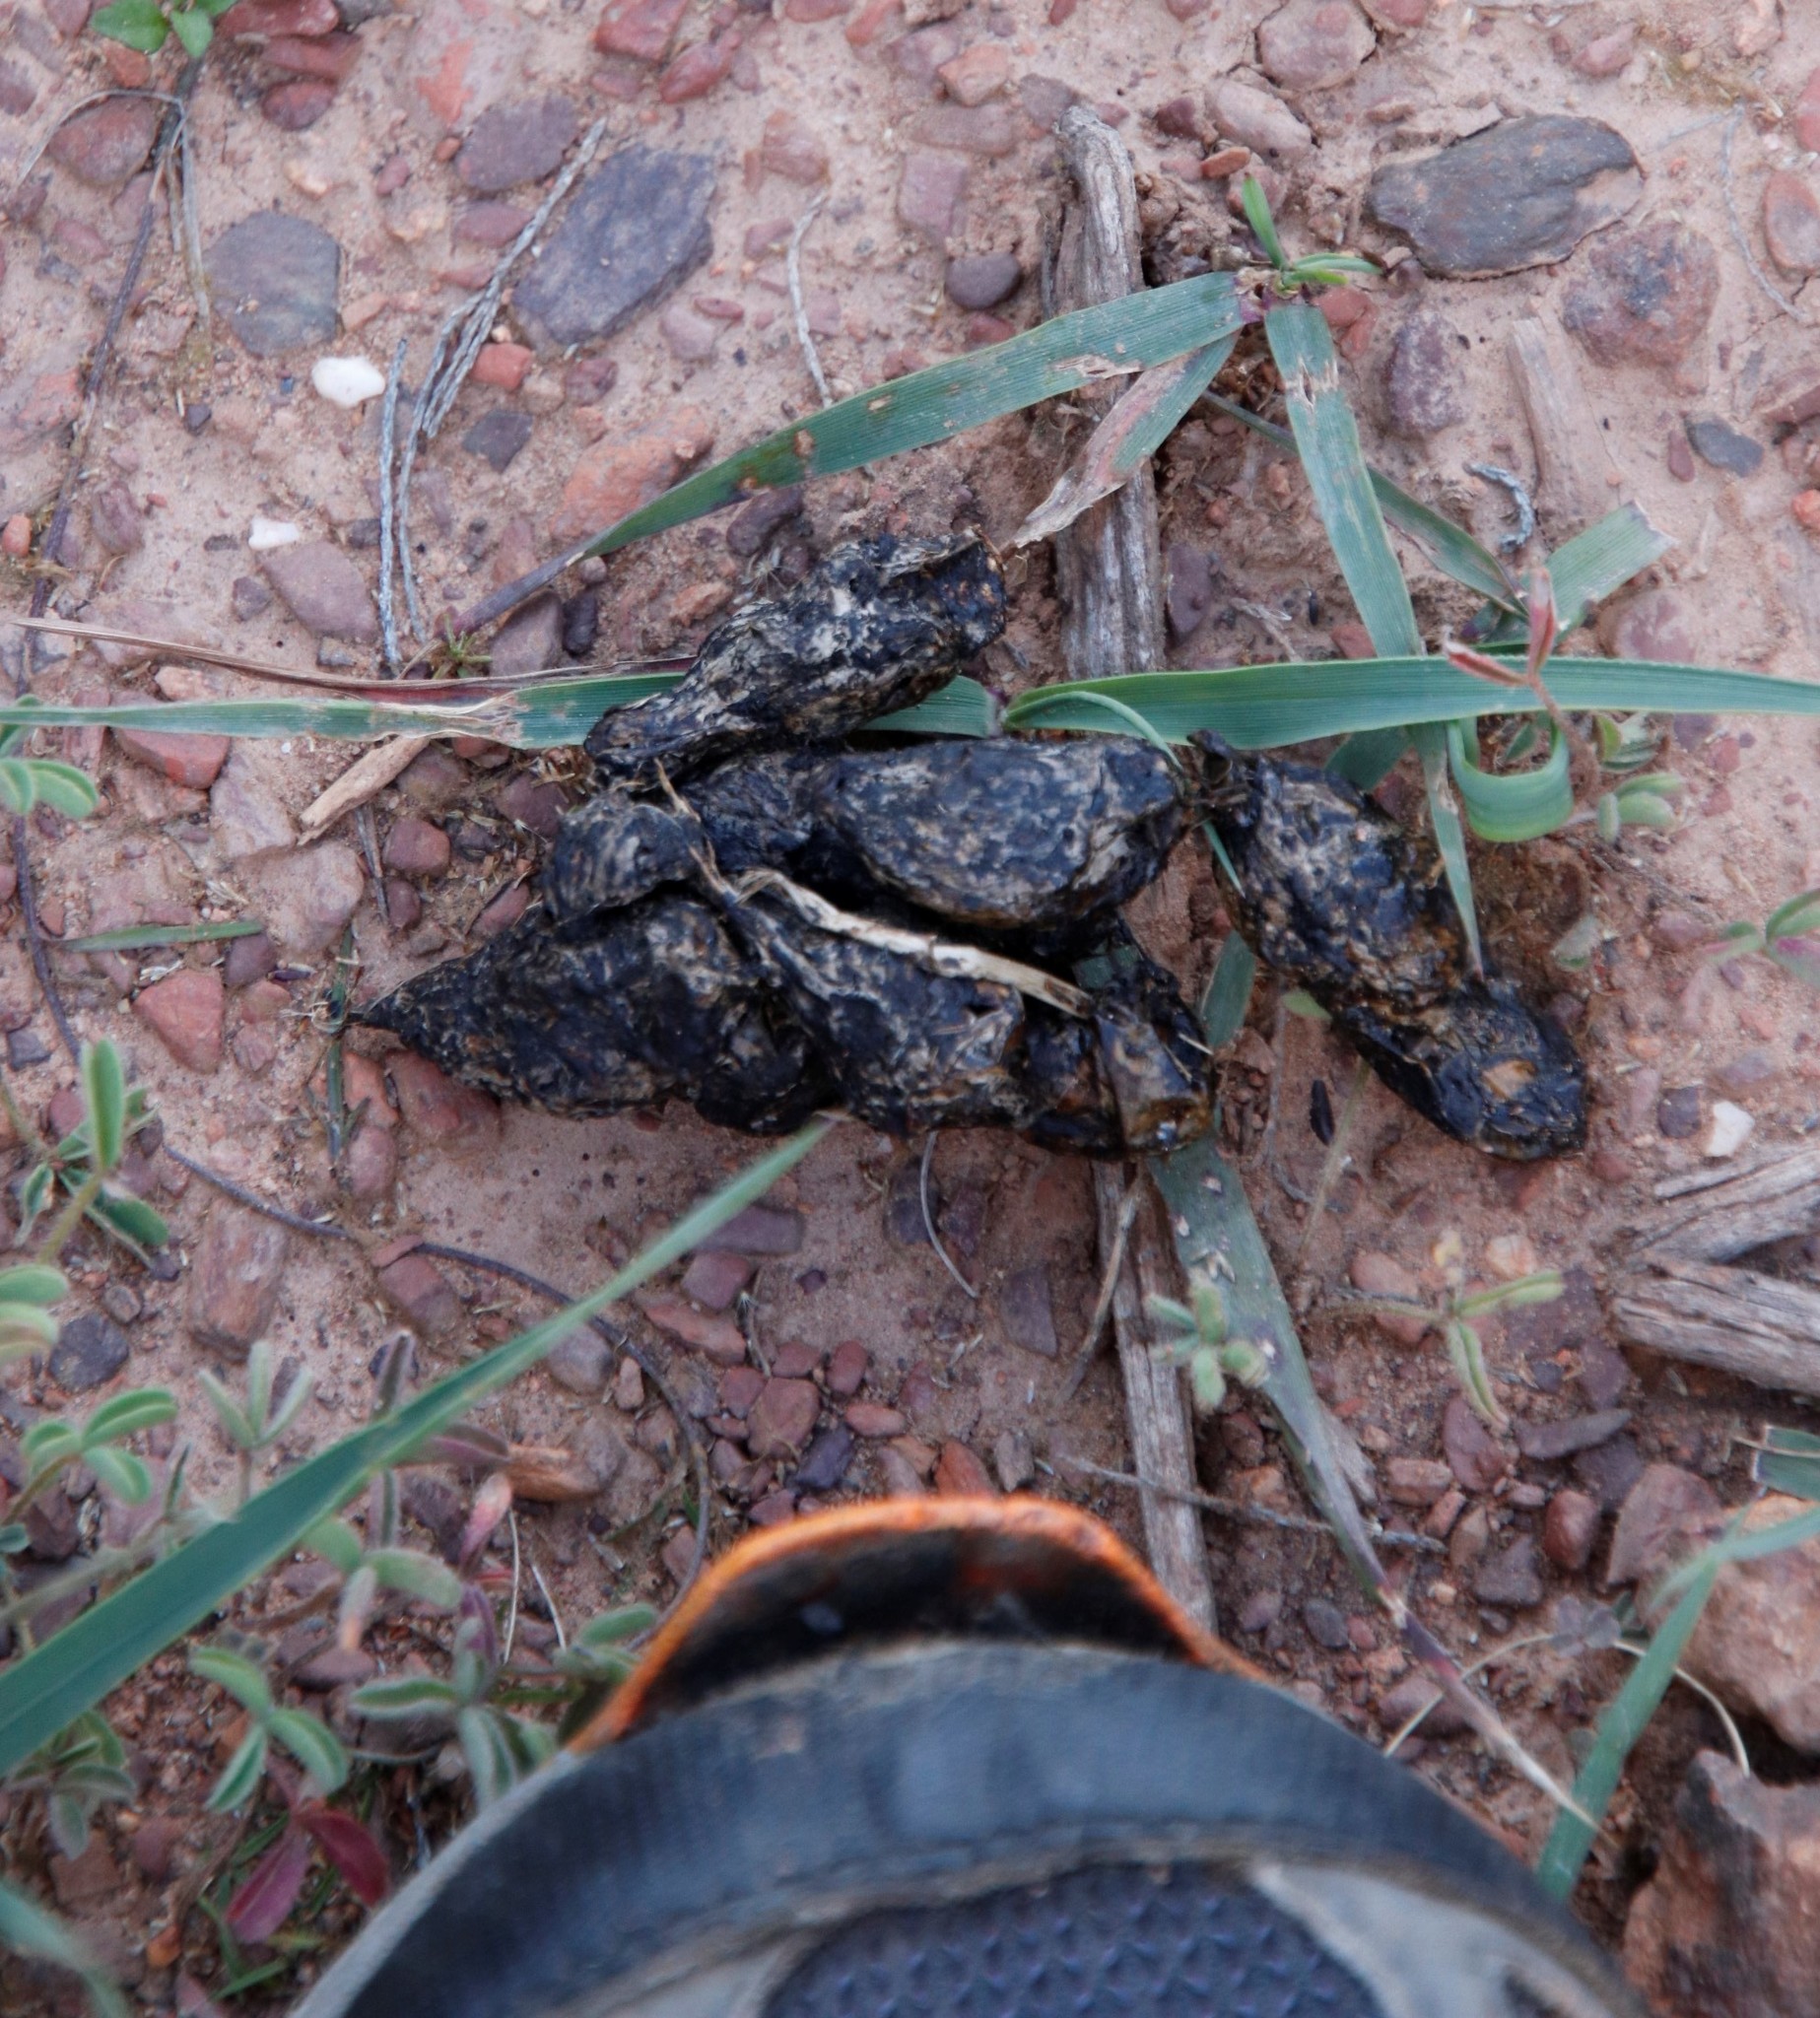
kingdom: Animalia
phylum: Chordata
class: Mammalia
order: Rodentia
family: Hystricidae
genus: Hystrix
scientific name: Hystrix africaeaustralis
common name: Cape porcupine
